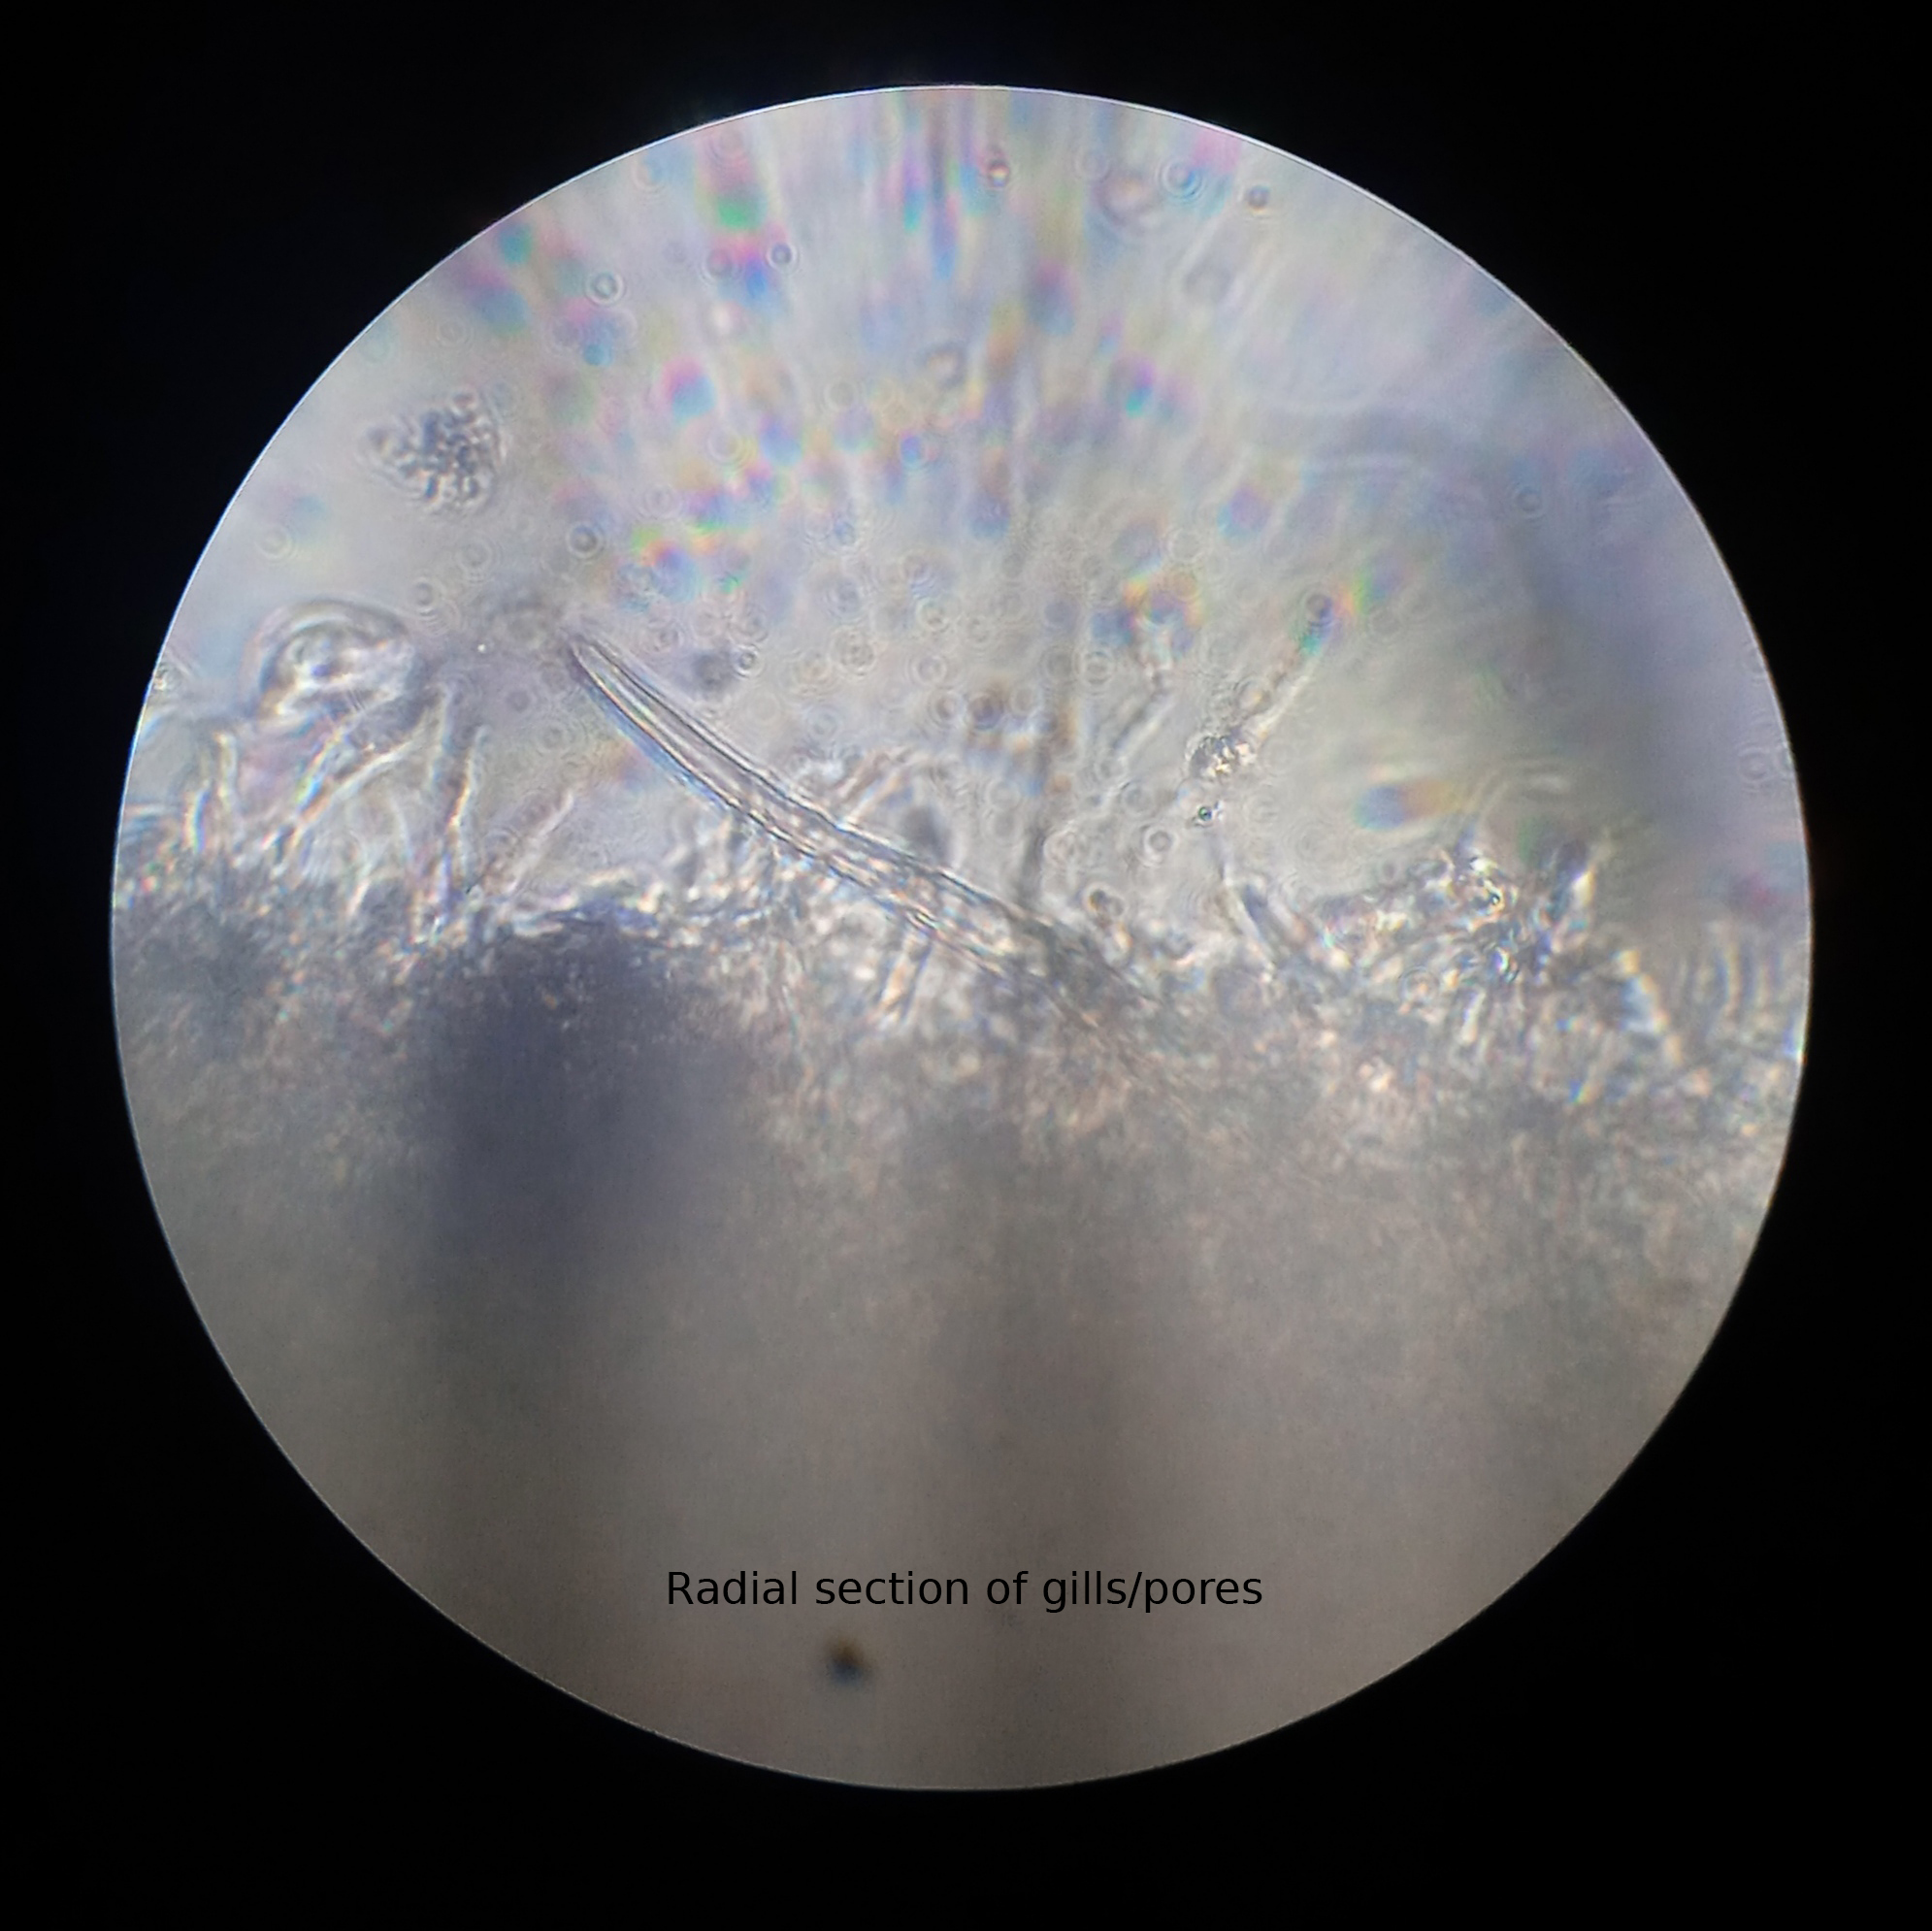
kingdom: Fungi
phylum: Basidiomycota
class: Agaricomycetes
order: Polyporales
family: Polyporaceae
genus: Daedaleopsis
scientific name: Daedaleopsis tricolor
